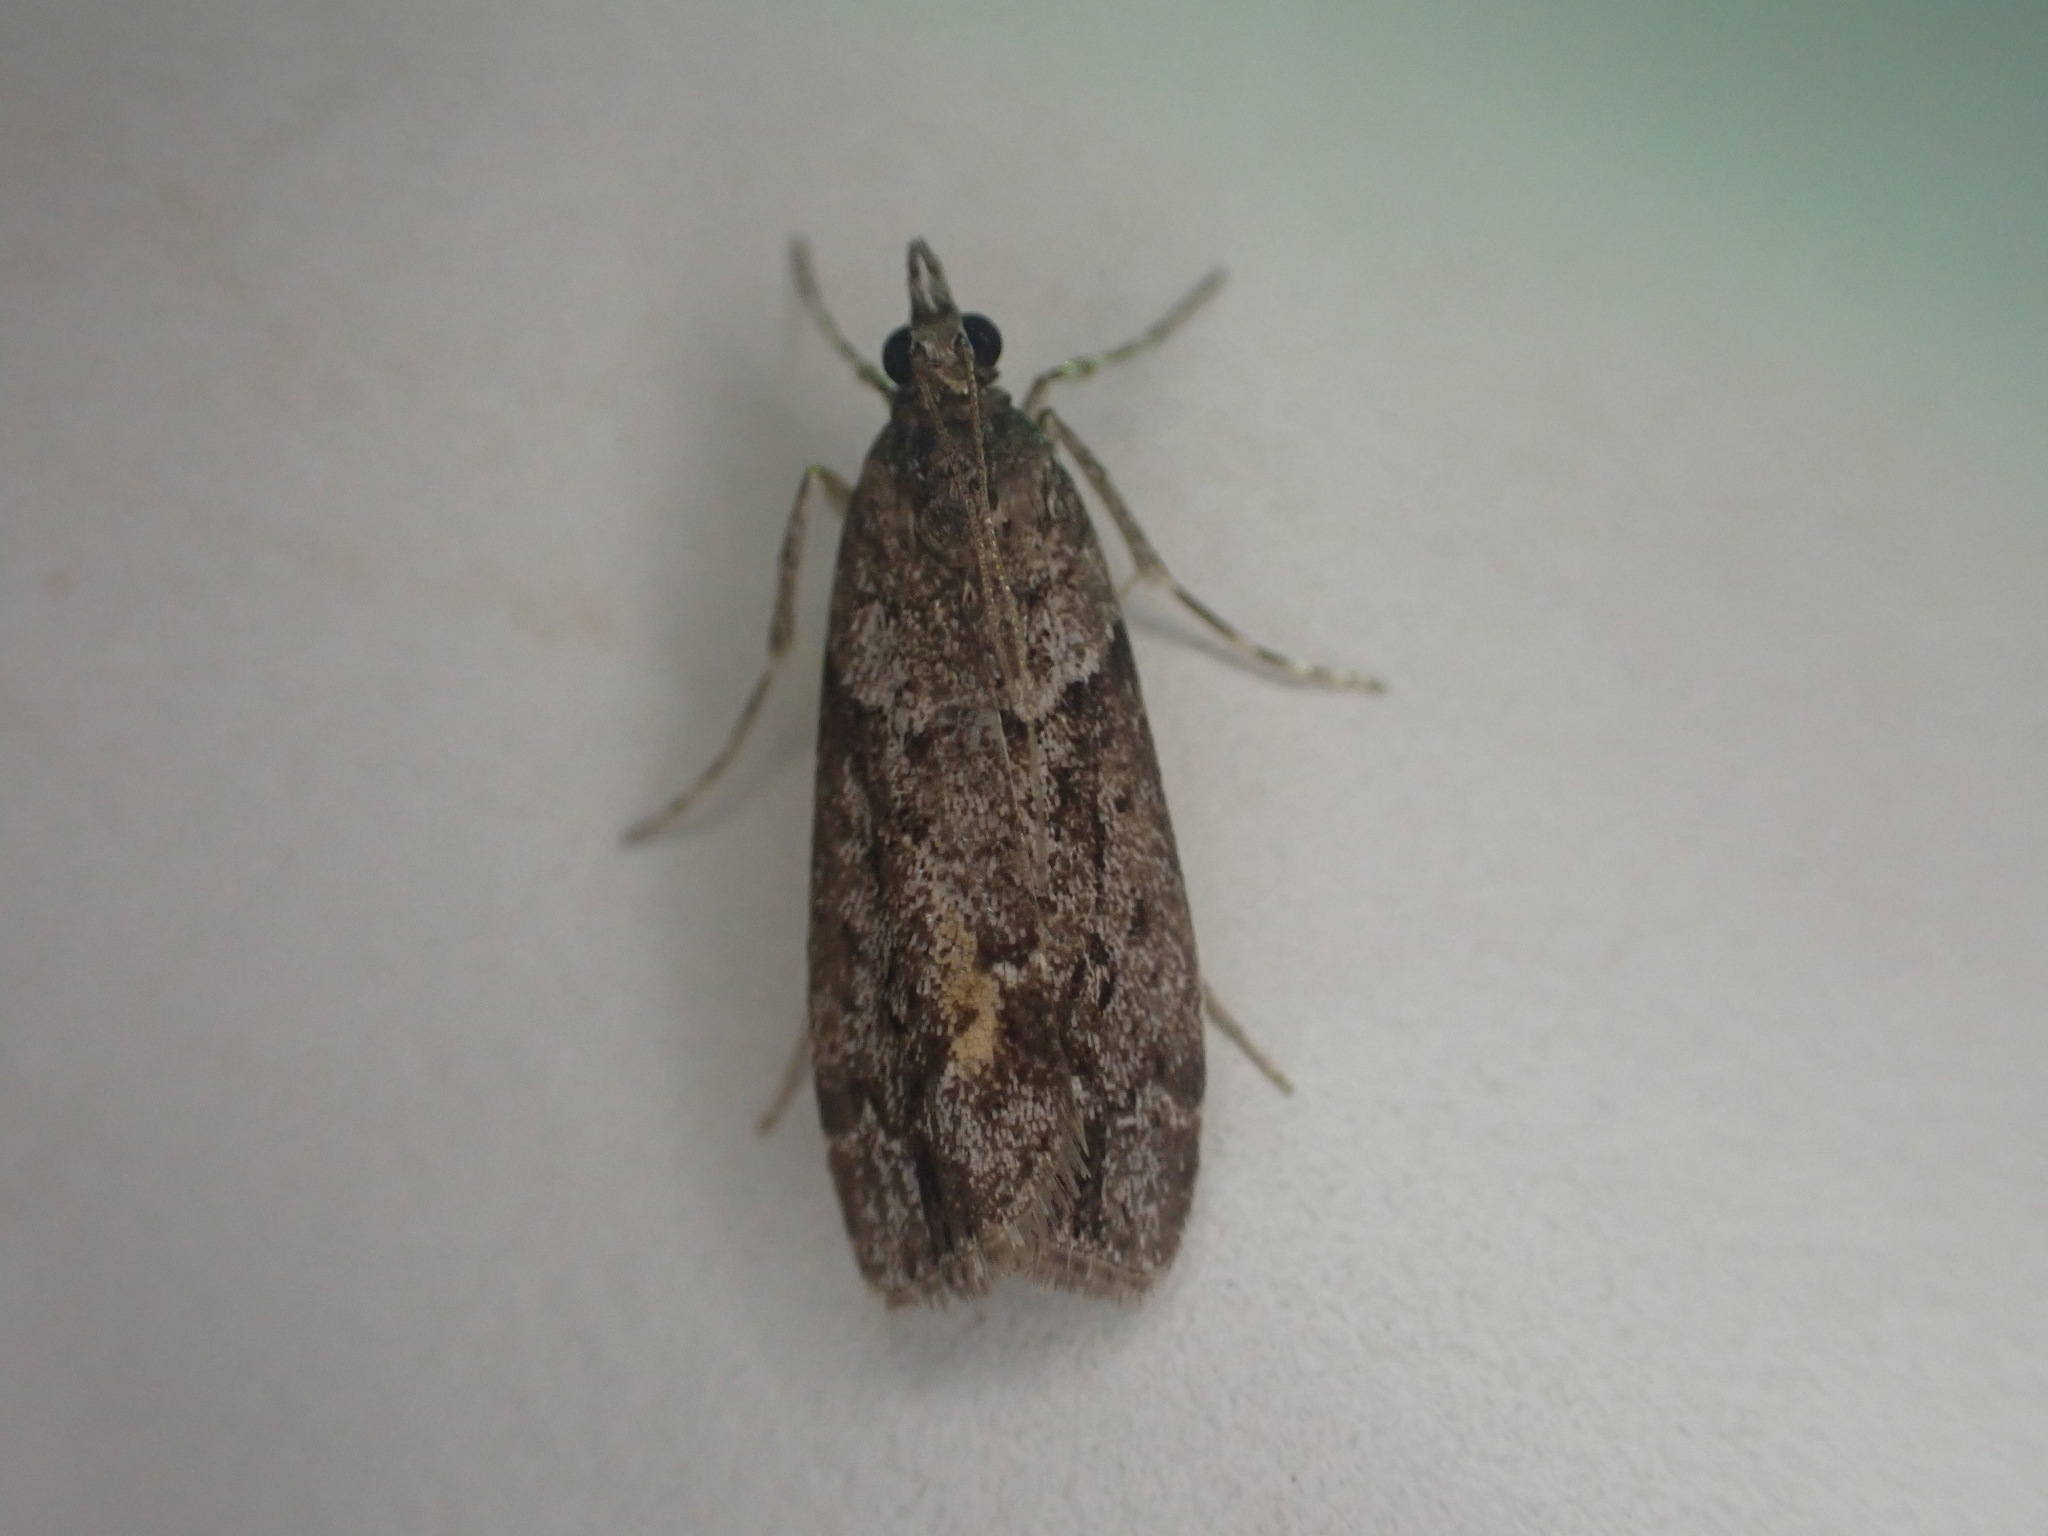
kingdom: Animalia
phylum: Arthropoda
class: Insecta
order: Lepidoptera
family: Crambidae
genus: Eudonia
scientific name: Eudonia submarginalis
